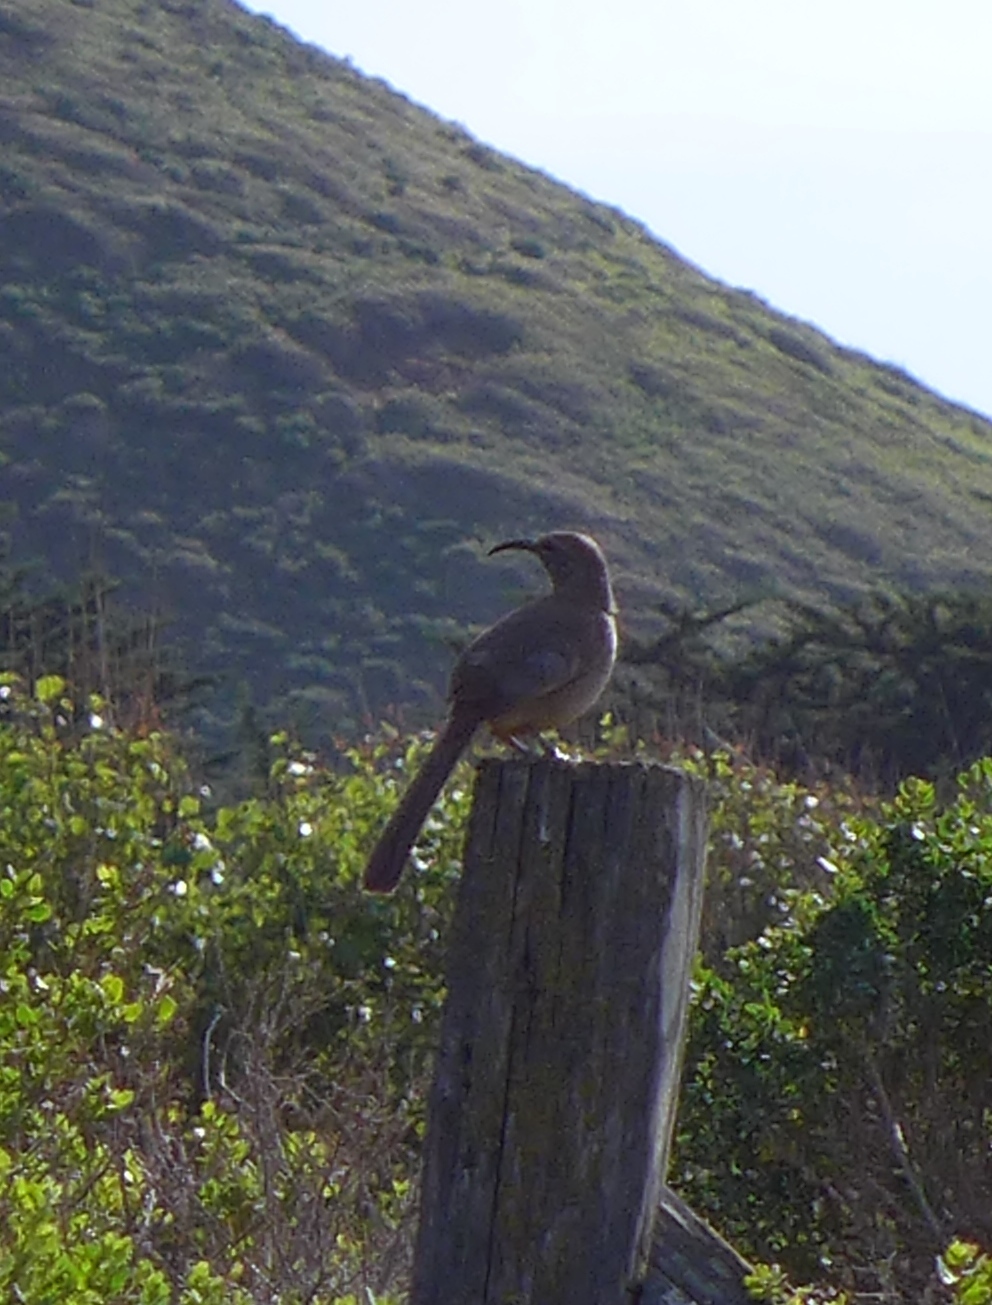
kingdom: Animalia
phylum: Chordata
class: Aves
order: Passeriformes
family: Mimidae
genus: Toxostoma
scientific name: Toxostoma redivivum
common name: California thrasher
